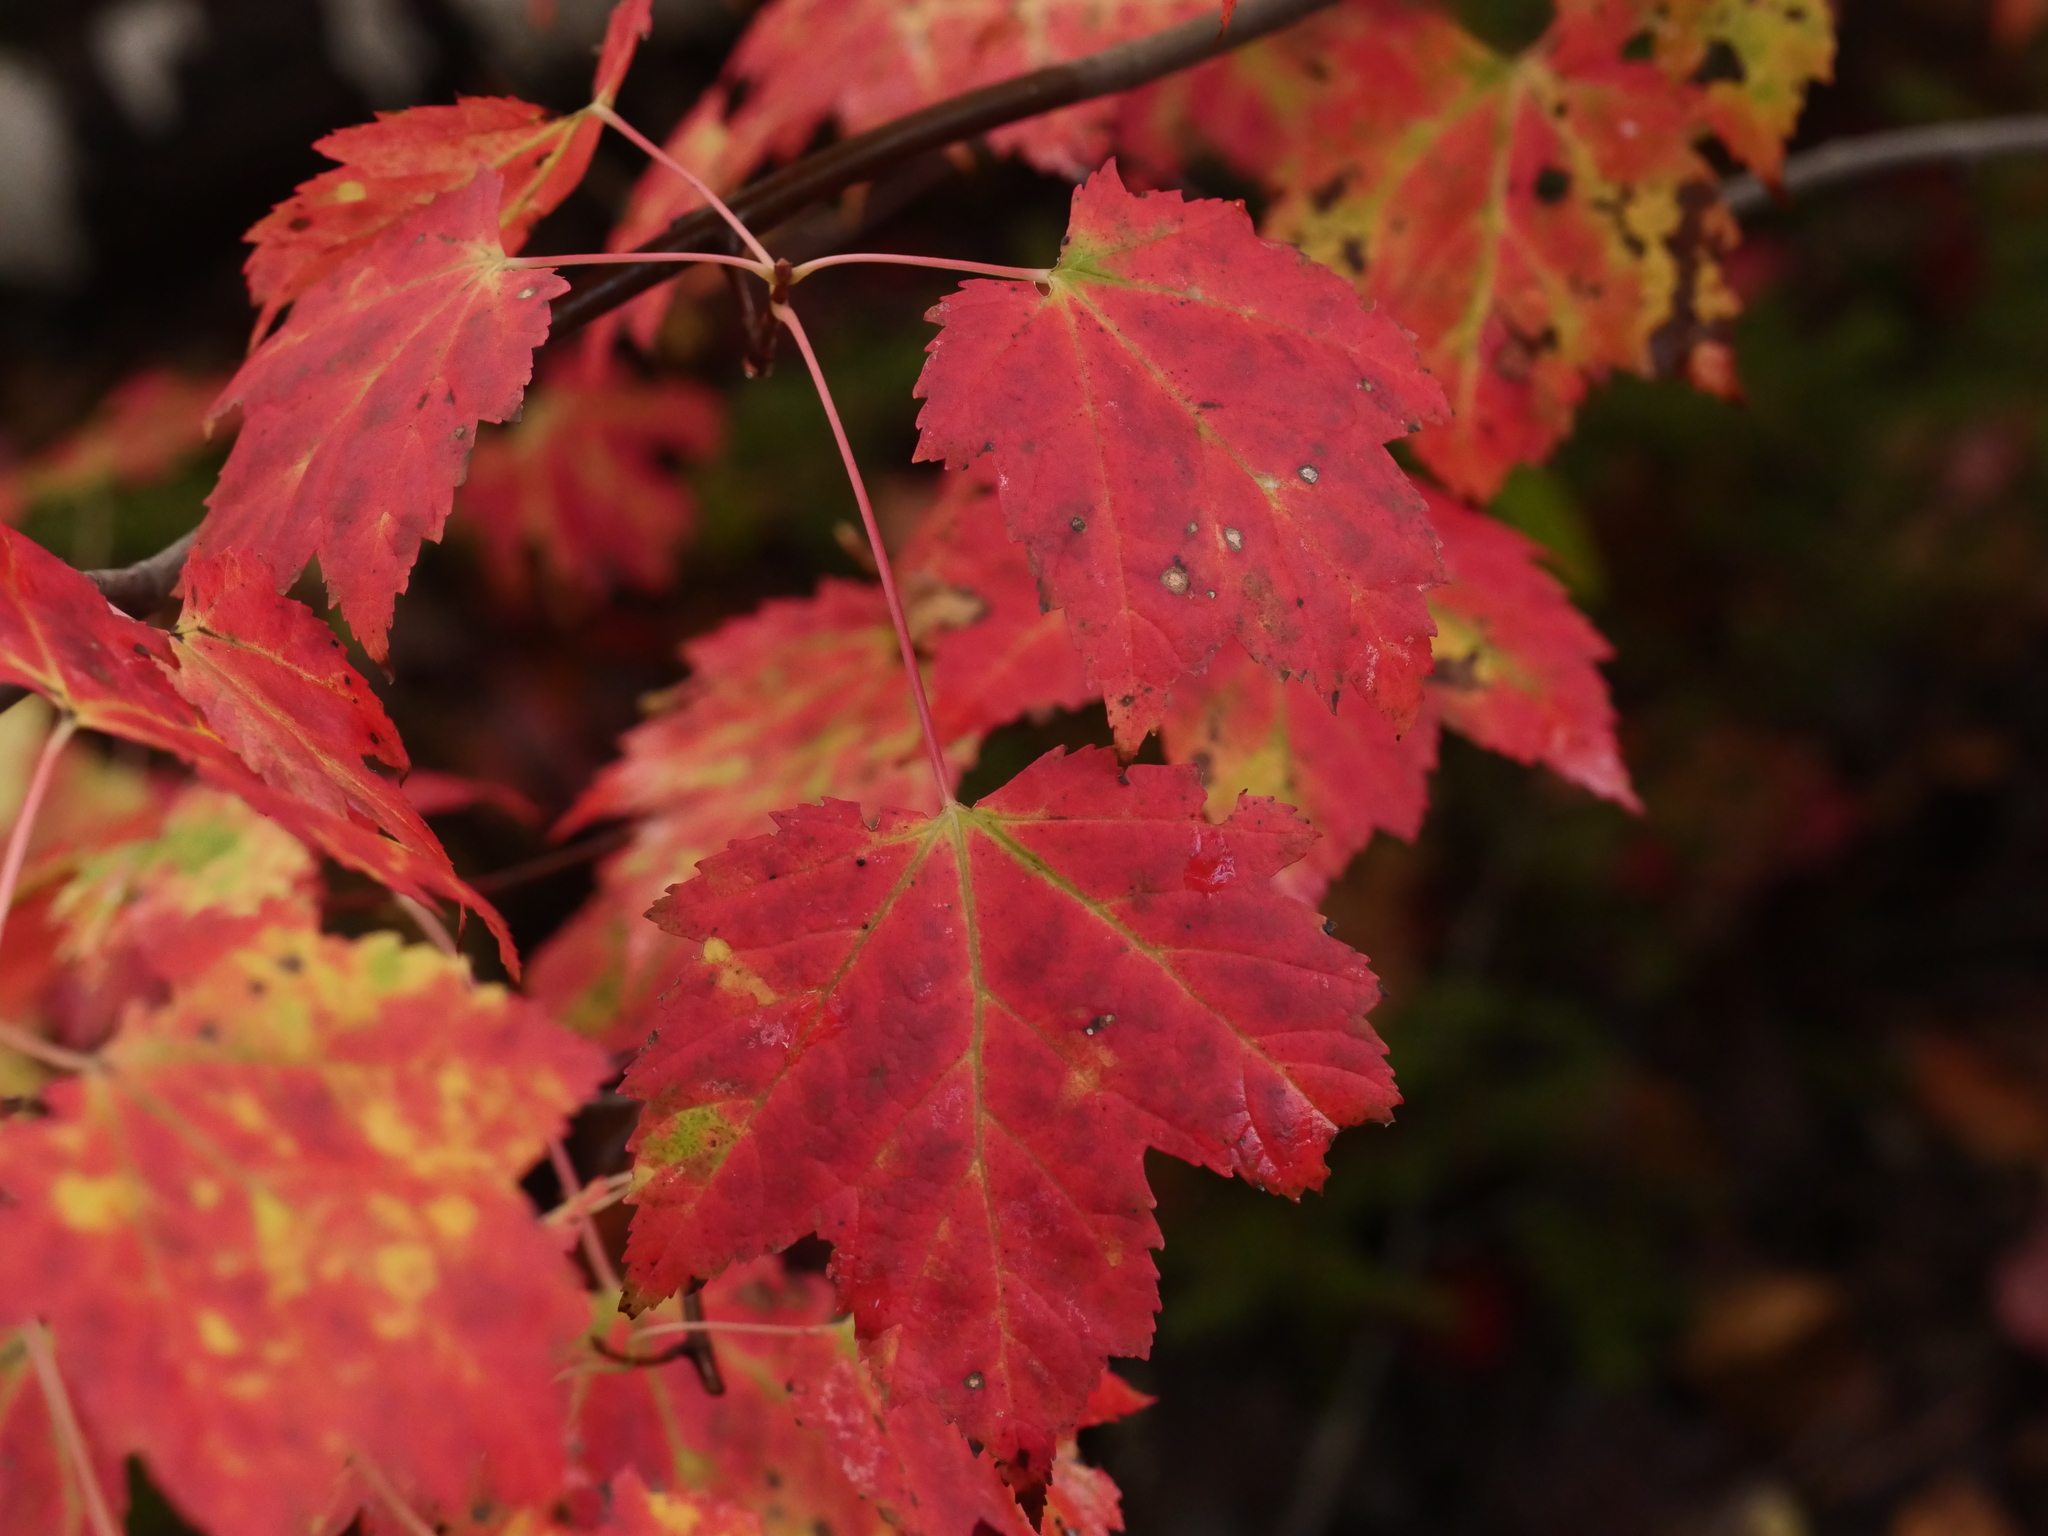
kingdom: Plantae
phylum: Tracheophyta
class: Magnoliopsida
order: Sapindales
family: Sapindaceae
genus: Acer
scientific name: Acer rubrum
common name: Red maple
